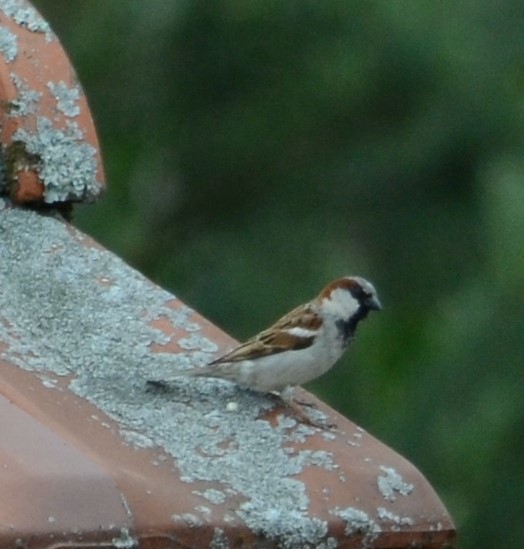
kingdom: Animalia
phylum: Chordata
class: Aves
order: Passeriformes
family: Passeridae
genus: Passer
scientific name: Passer domesticus
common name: House sparrow
